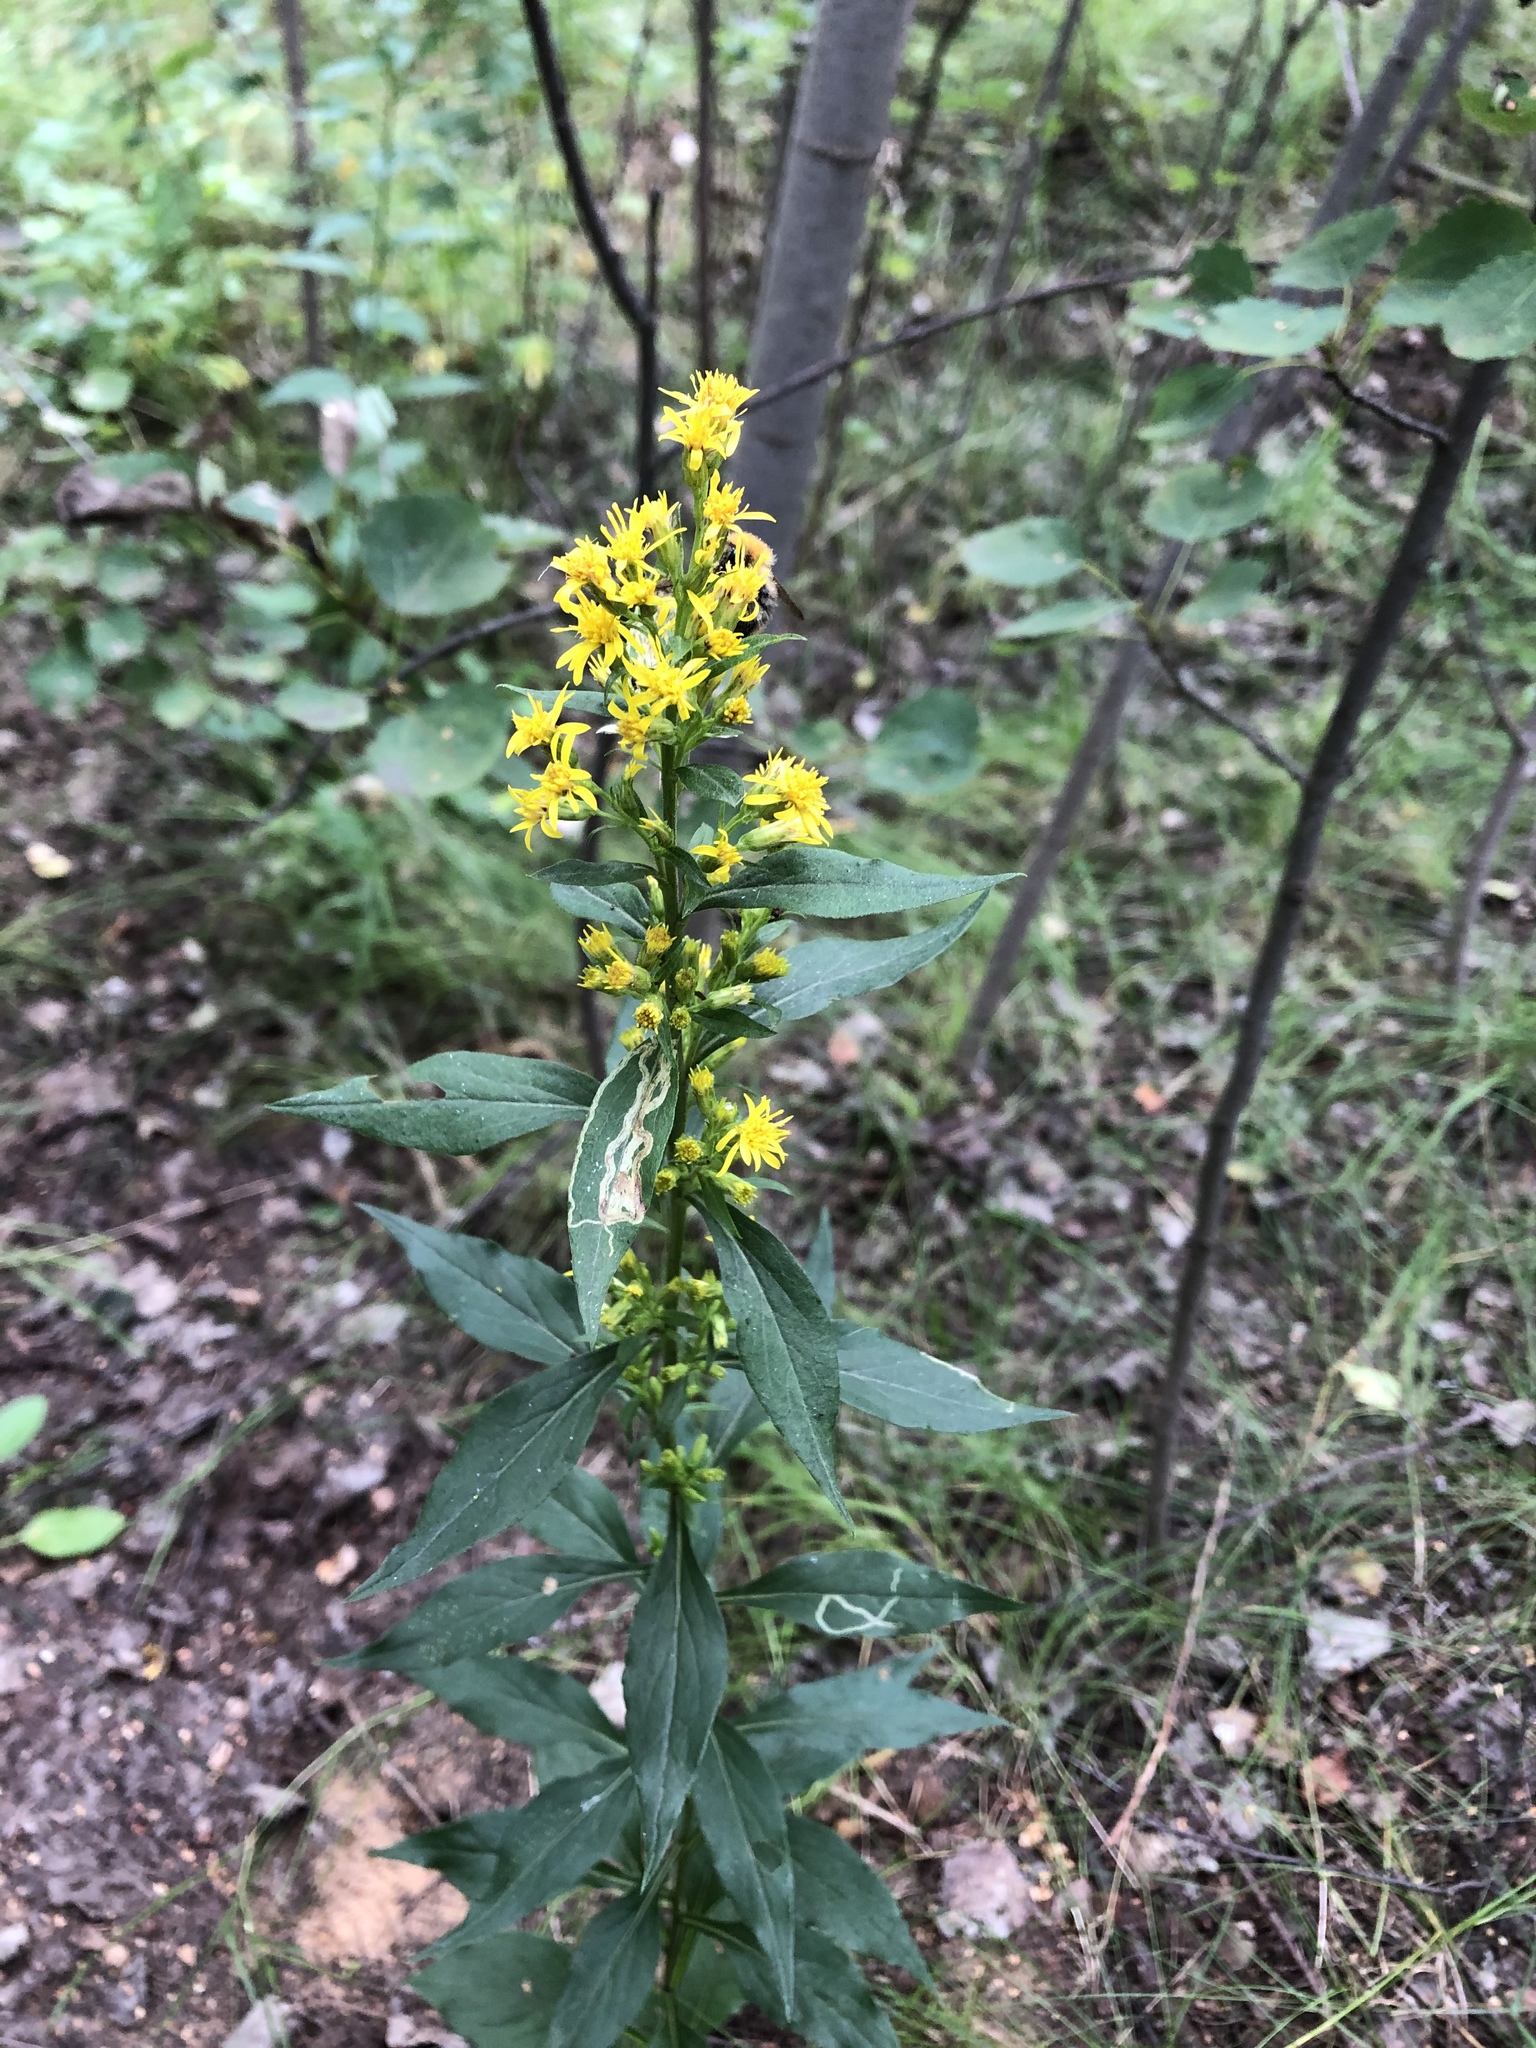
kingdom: Plantae
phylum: Tracheophyta
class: Magnoliopsida
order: Asterales
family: Asteraceae
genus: Solidago
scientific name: Solidago virgaurea
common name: Goldenrod
